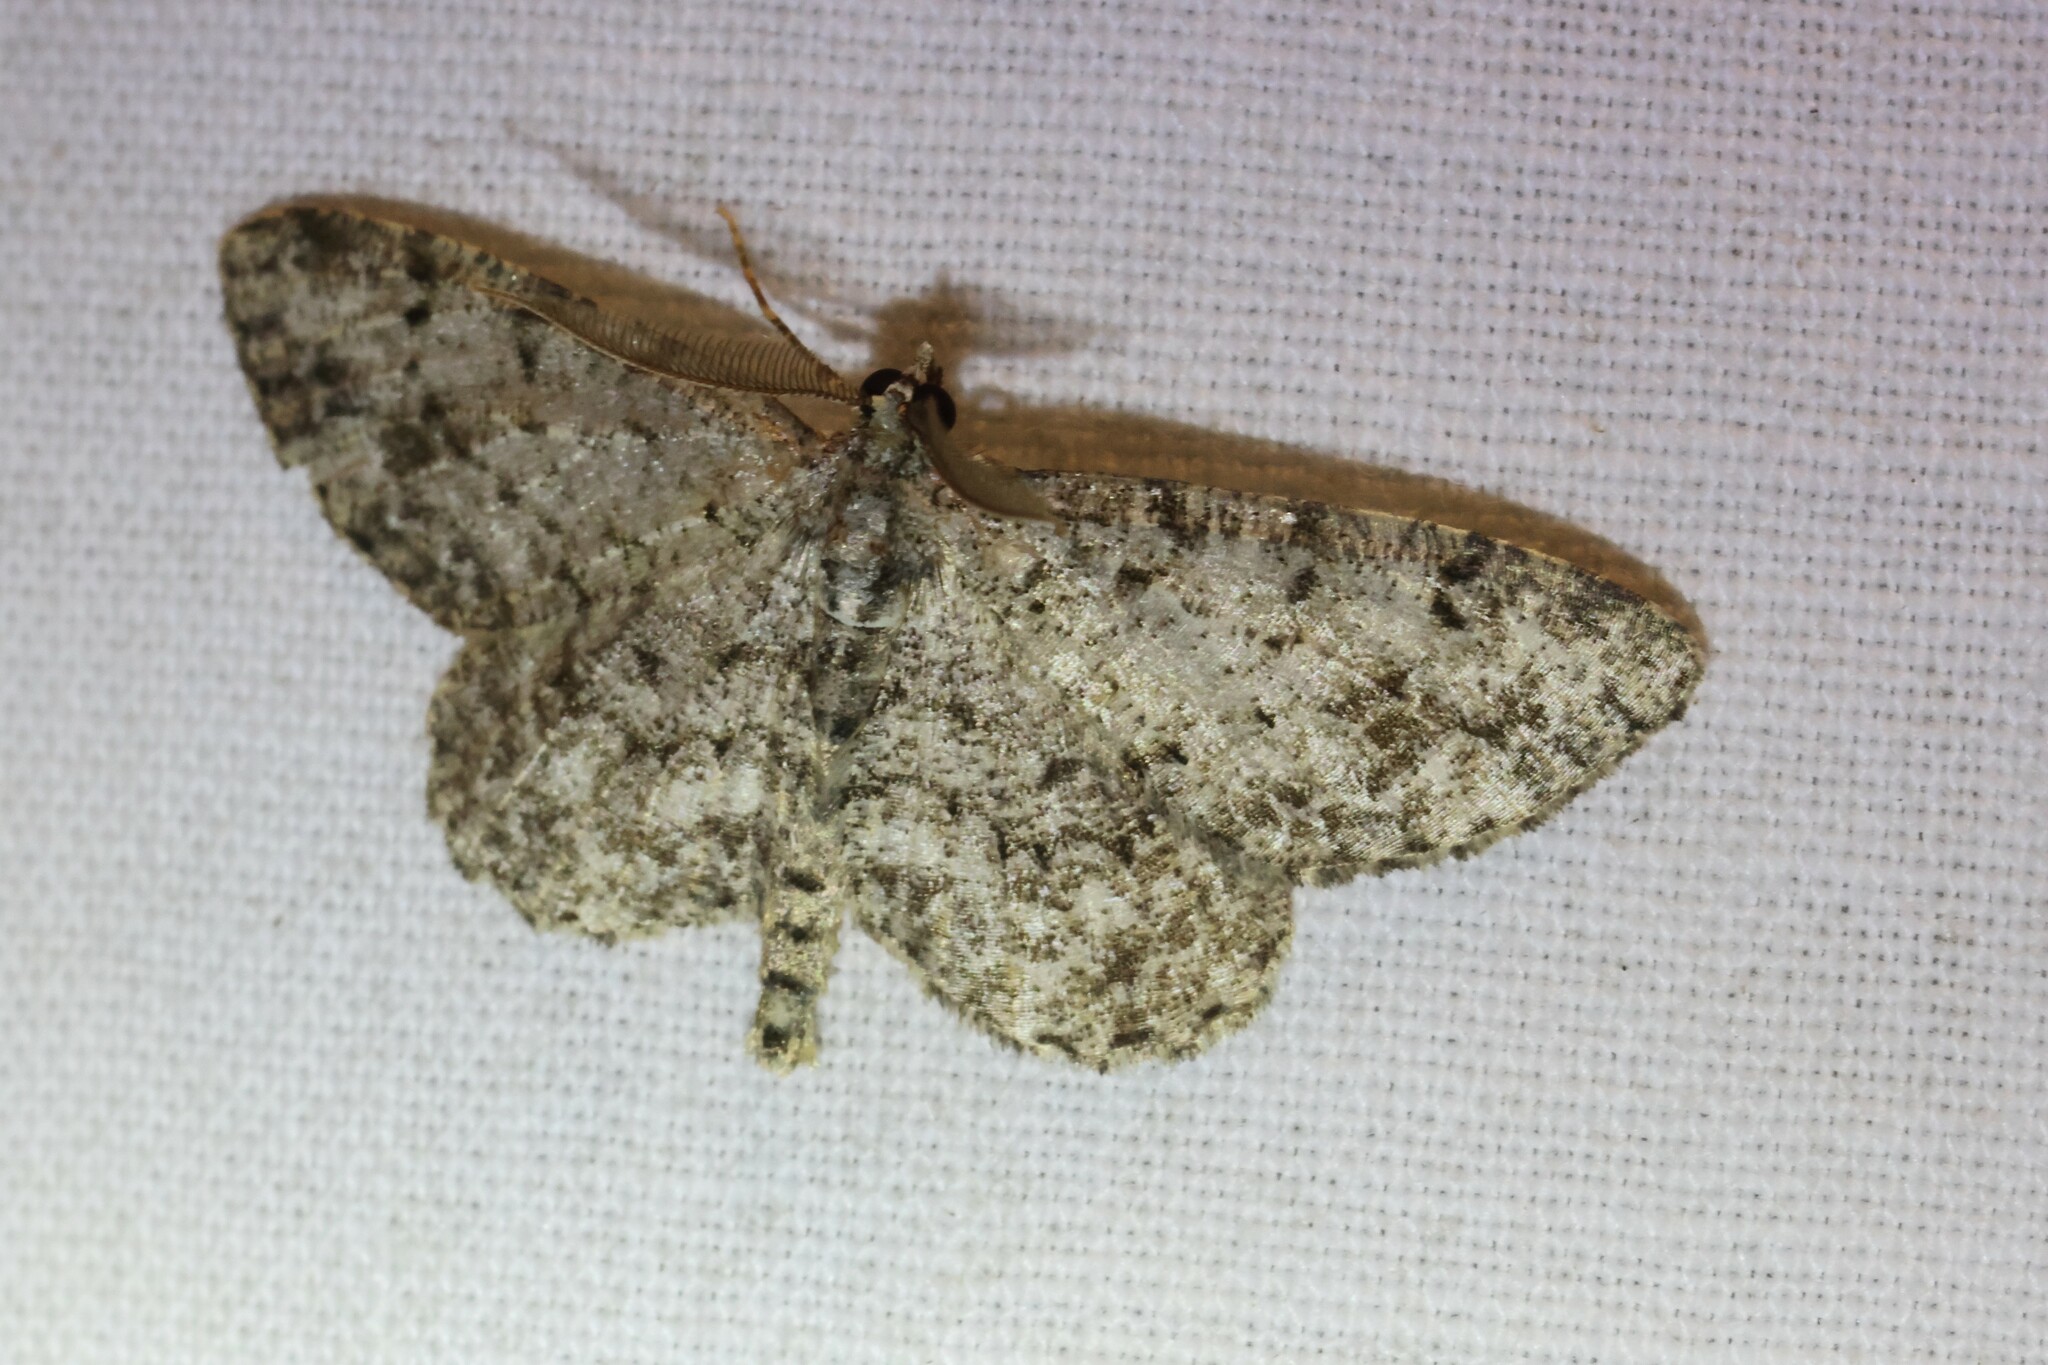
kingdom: Animalia
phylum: Arthropoda
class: Insecta
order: Lepidoptera
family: Geometridae
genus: Protoboarmia
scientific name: Protoboarmia porcelaria
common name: Porcelain gray
